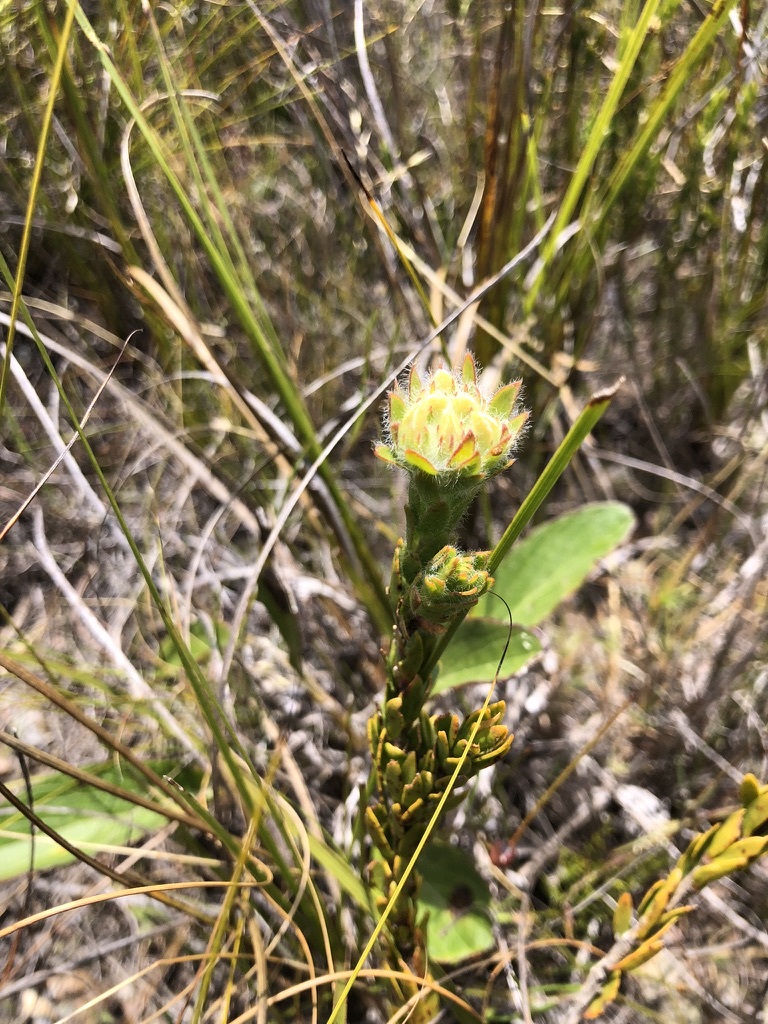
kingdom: Plantae
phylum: Tracheophyta
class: Magnoliopsida
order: Fabales
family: Fabaceae
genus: Aspalathus
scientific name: Aspalathus aspalathoides
